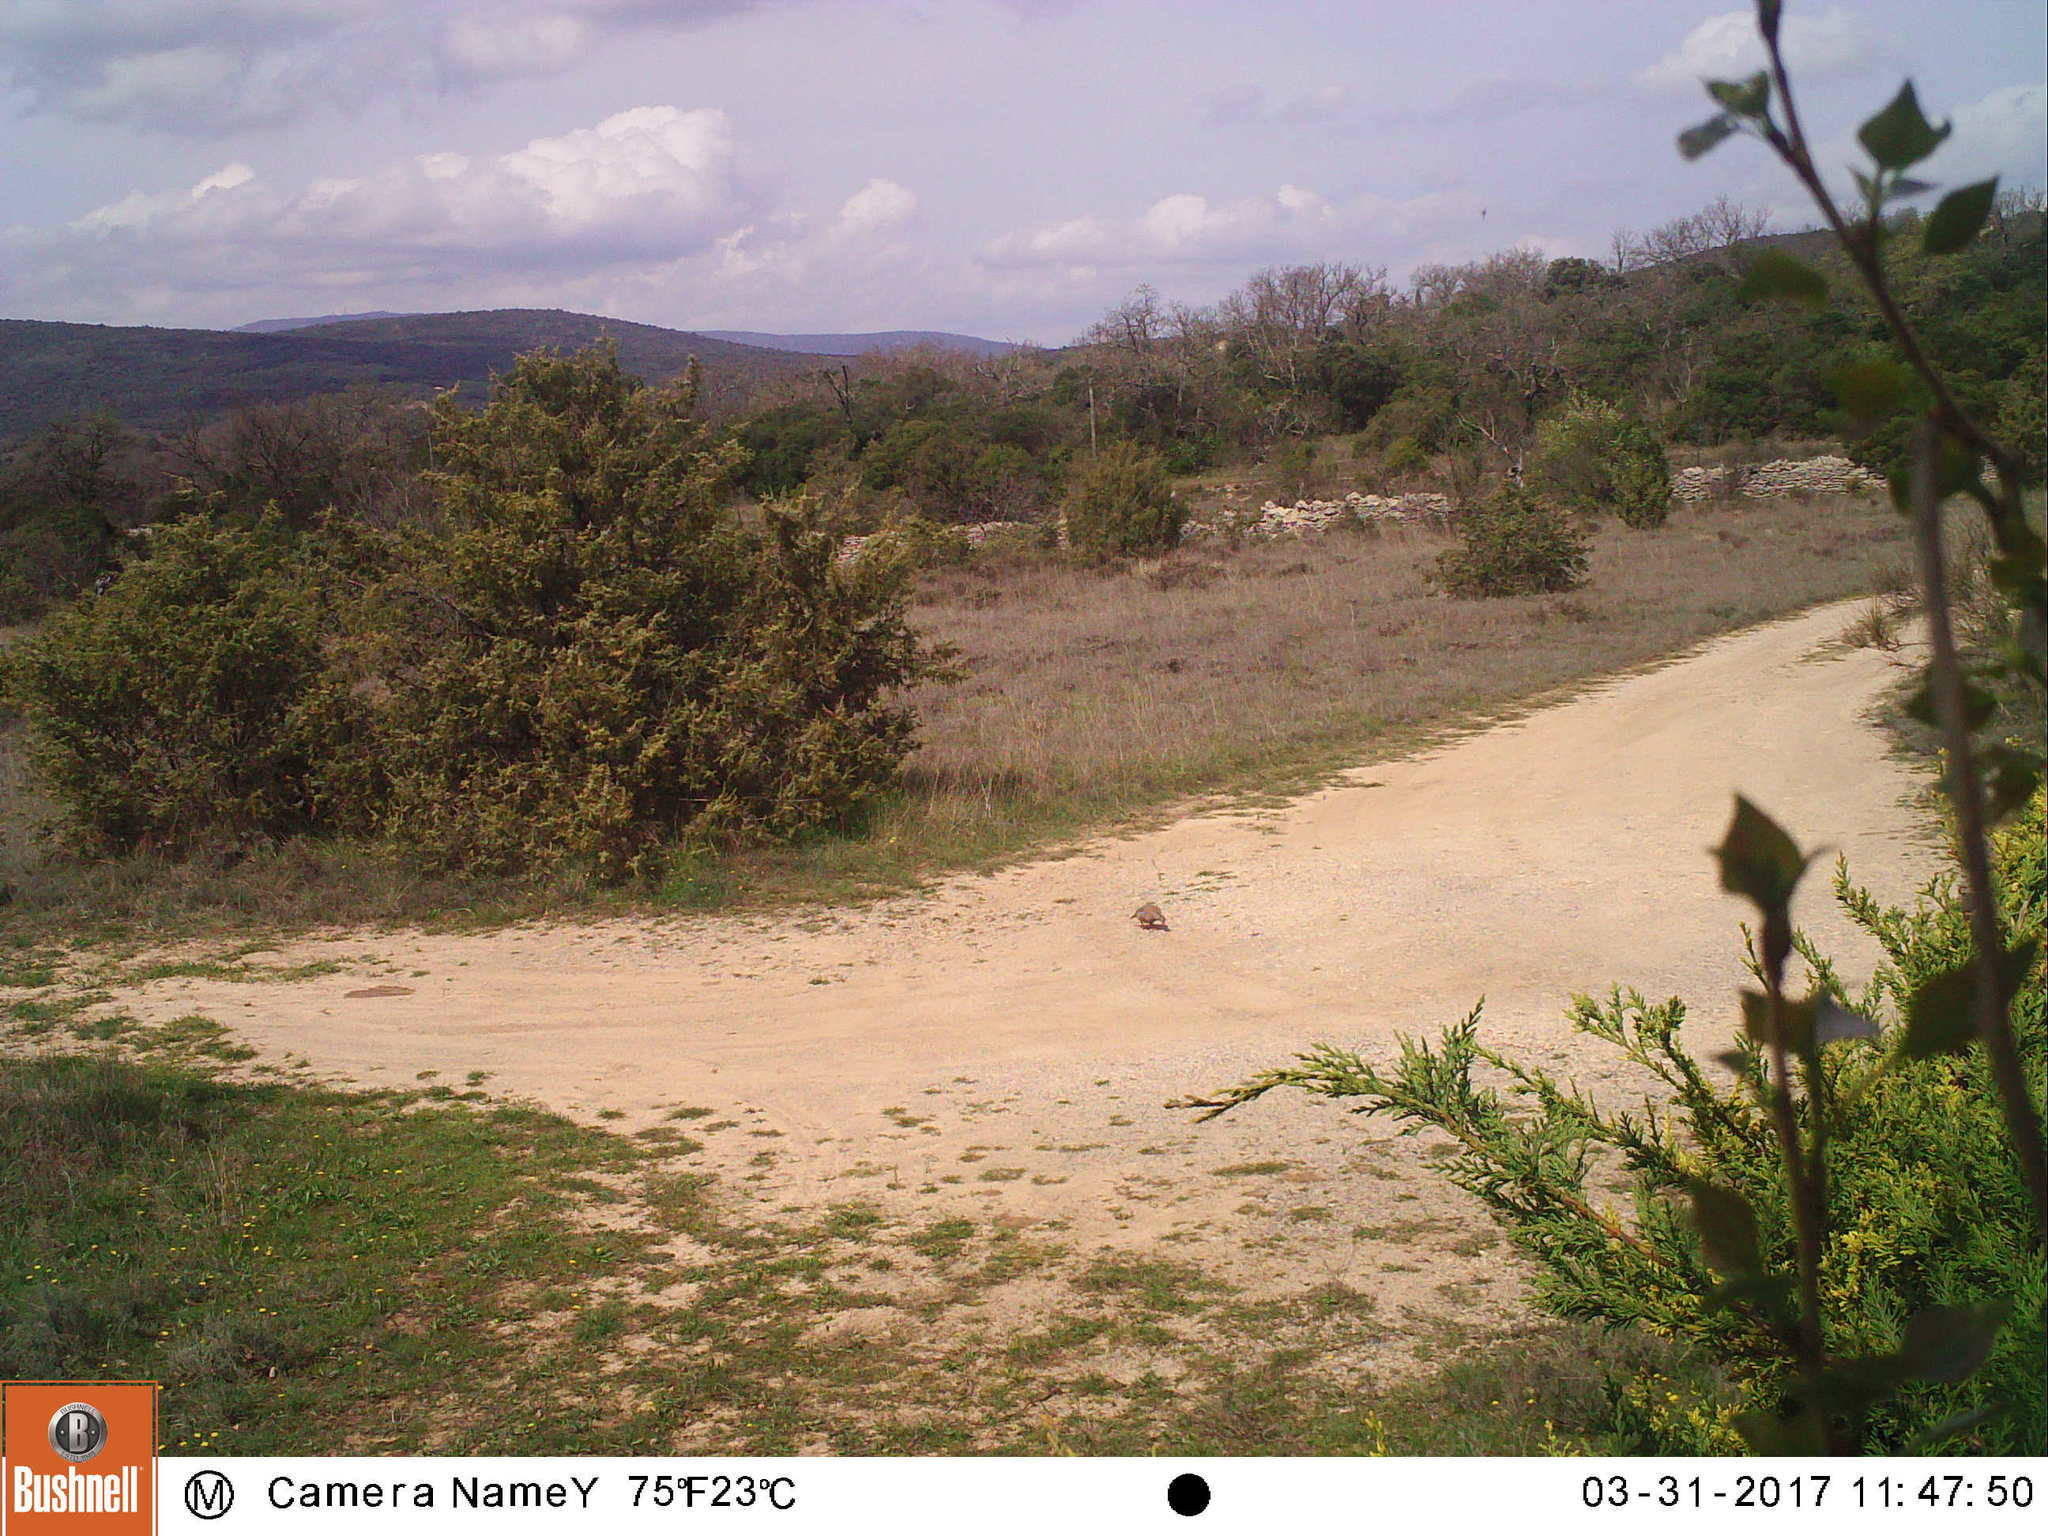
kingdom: Animalia
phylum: Chordata
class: Aves
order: Galliformes
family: Phasianidae
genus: Alectoris
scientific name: Alectoris rufa
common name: Red-legged partridge
